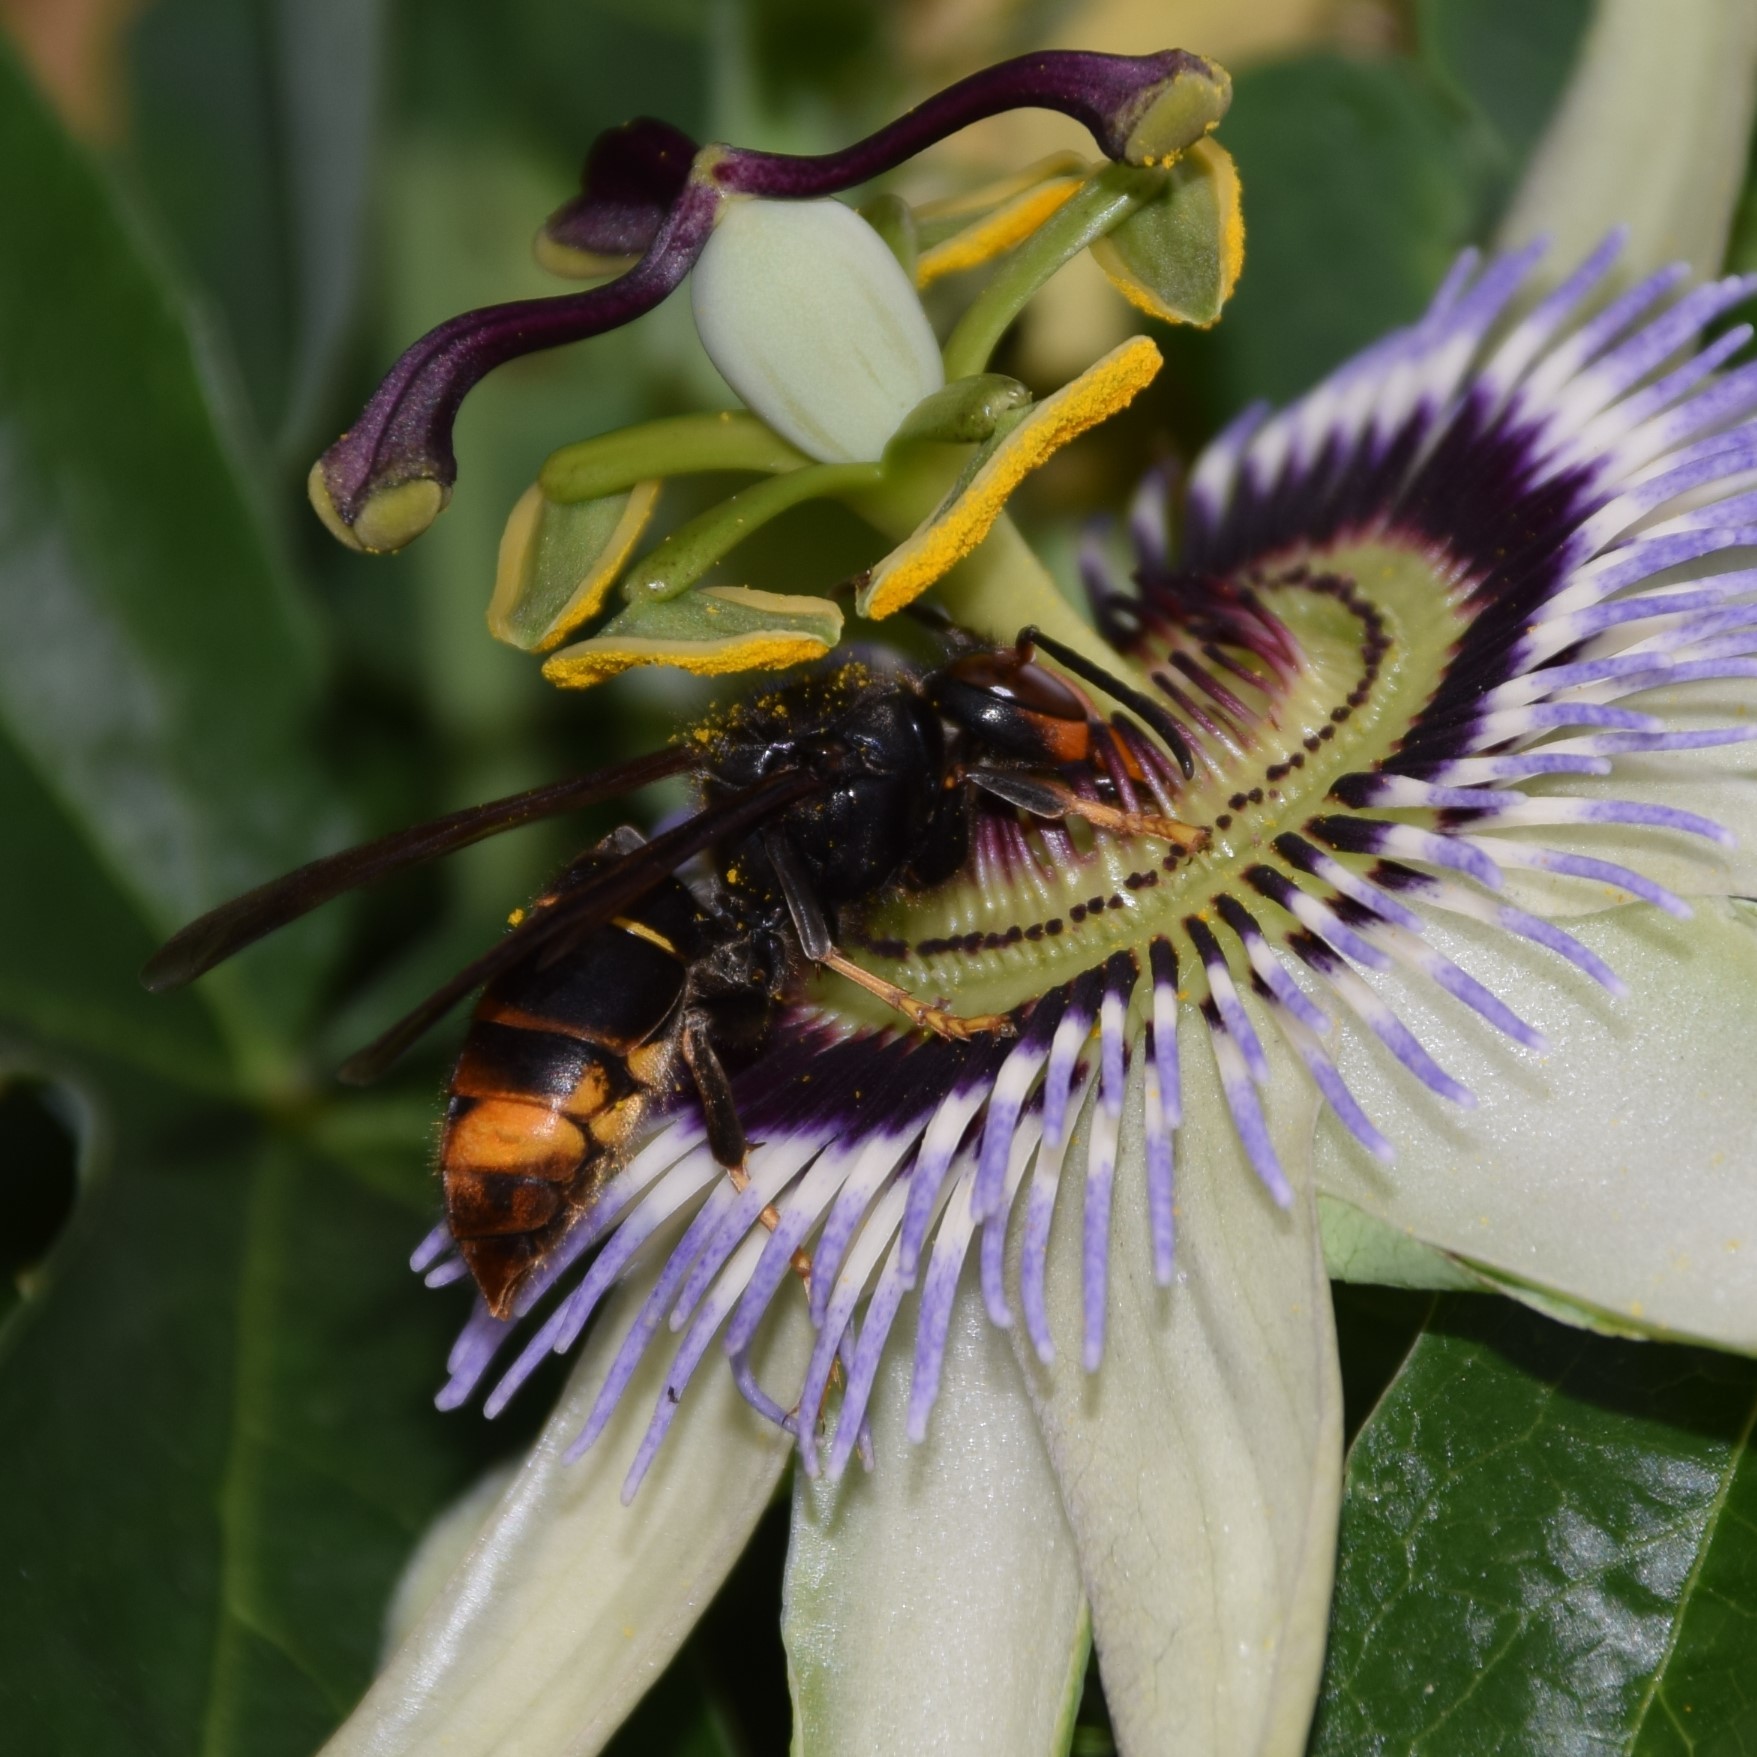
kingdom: Animalia
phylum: Arthropoda
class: Insecta
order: Hymenoptera
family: Vespidae
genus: Vespa
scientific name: Vespa velutina
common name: Asian hornet
